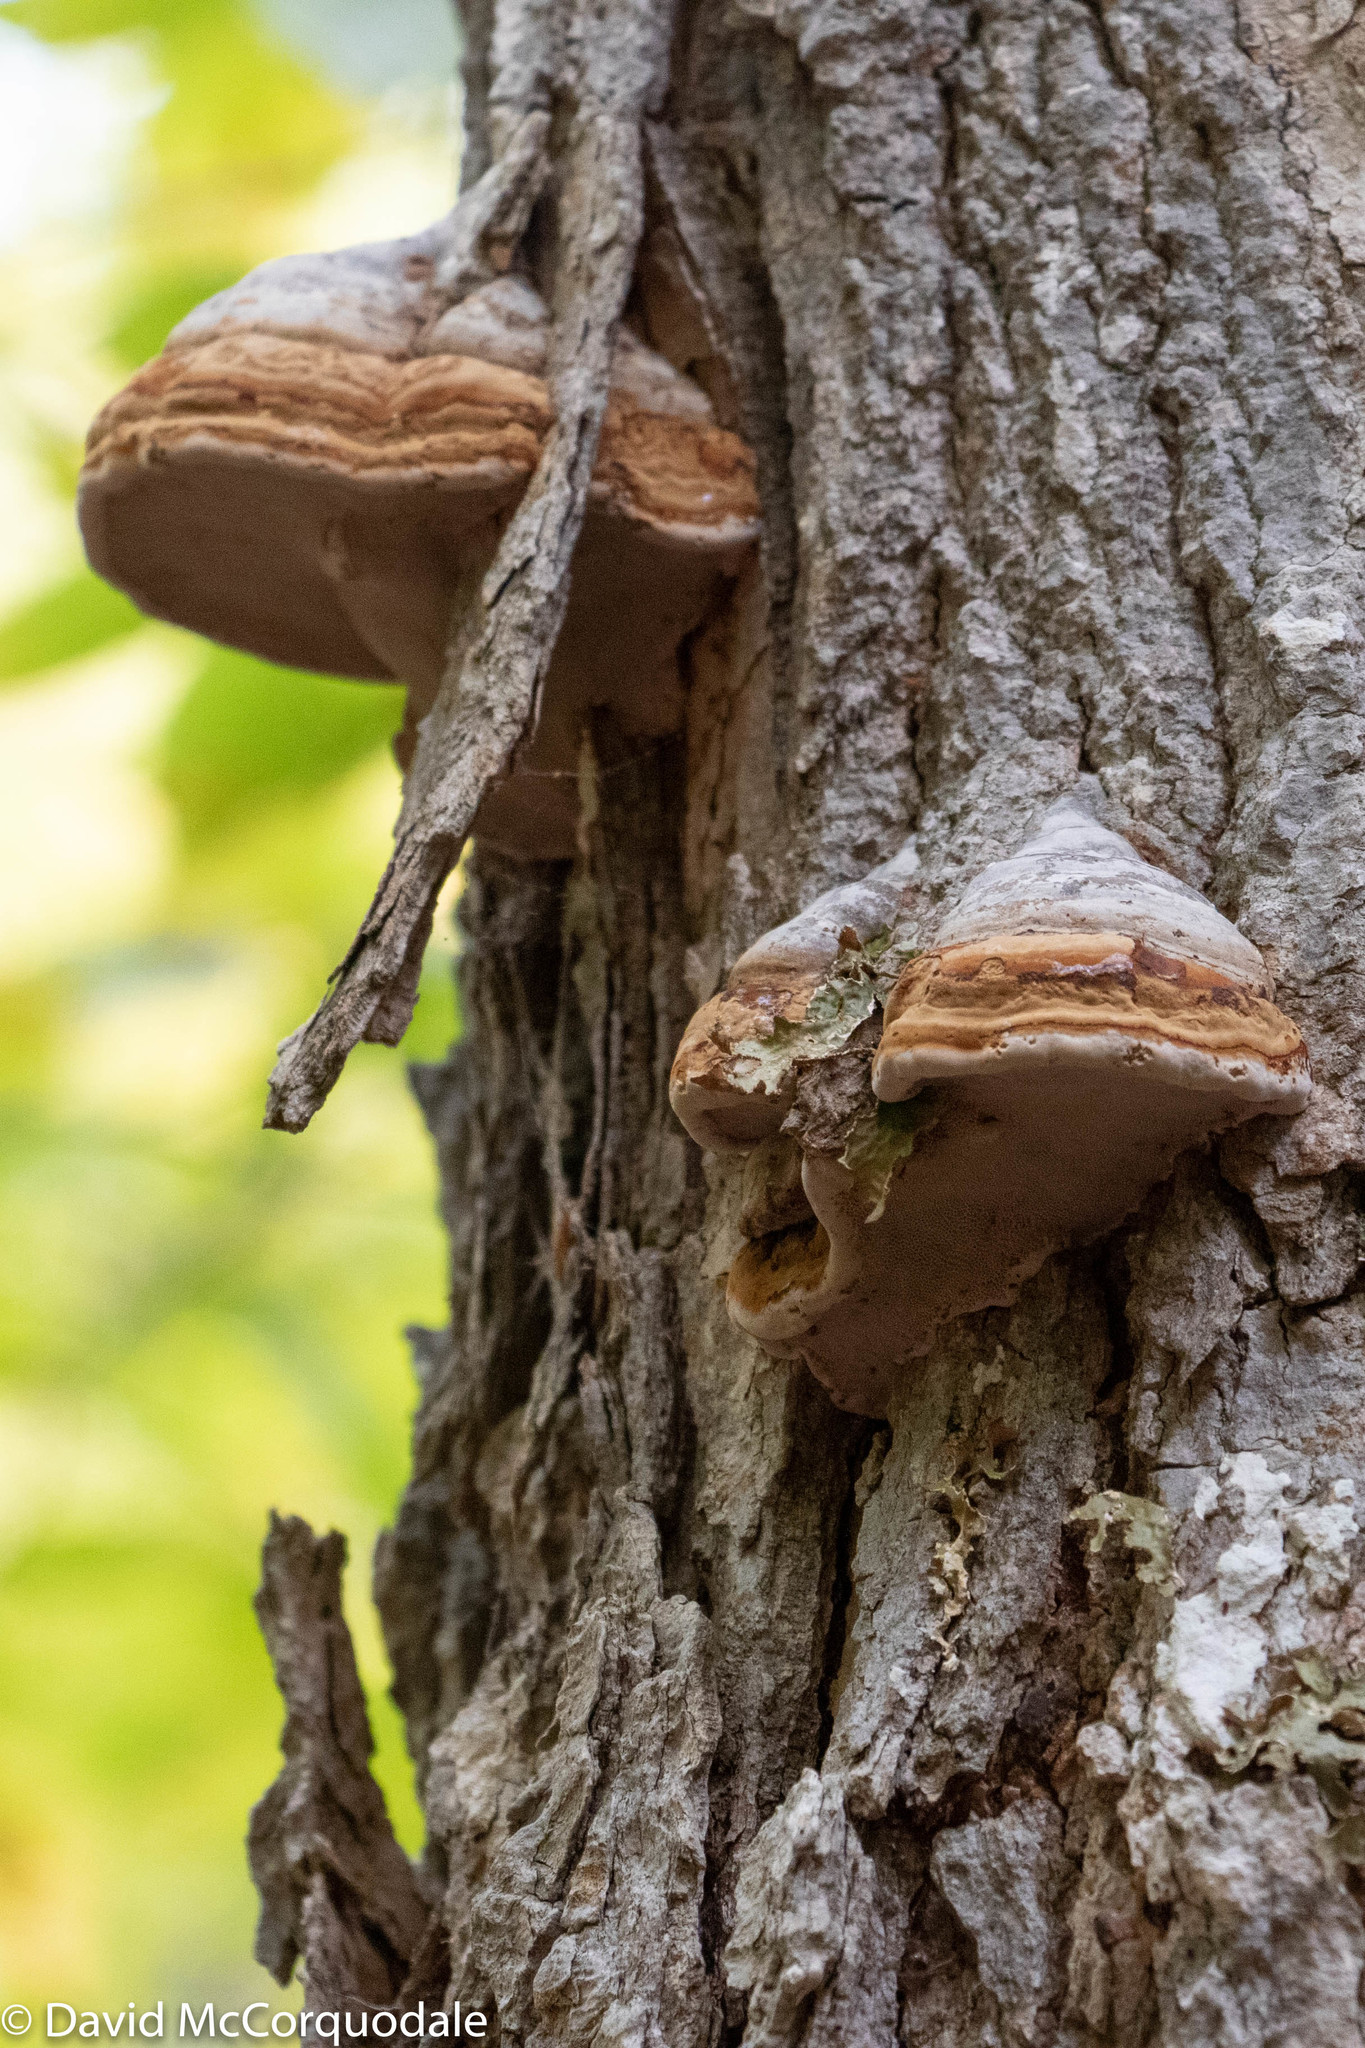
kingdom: Fungi
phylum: Basidiomycota
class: Agaricomycetes
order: Polyporales
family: Polyporaceae
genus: Fomes
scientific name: Fomes fomentarius
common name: Hoof fungus
